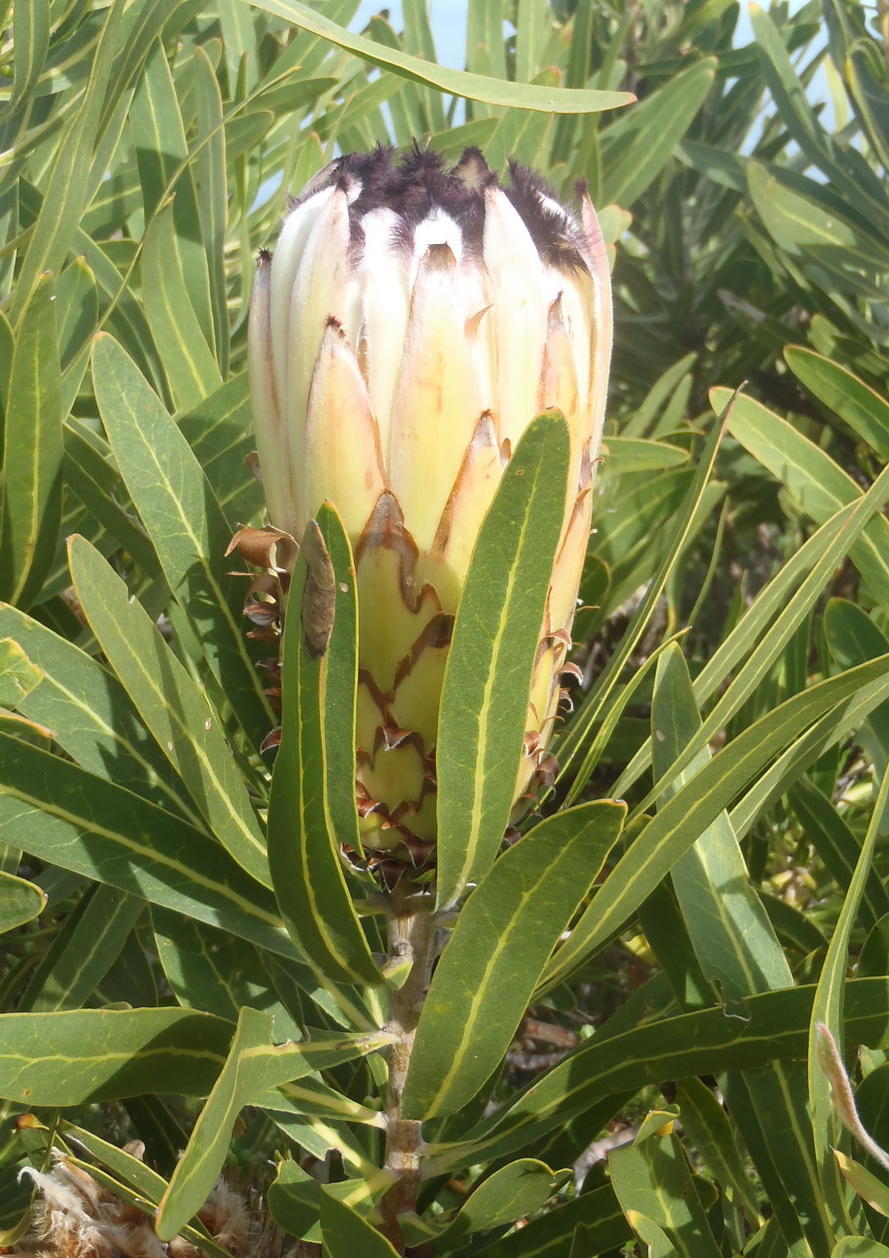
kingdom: Plantae
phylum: Tracheophyta
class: Magnoliopsida
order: Proteales
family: Proteaceae
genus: Protea
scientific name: Protea neriifolia
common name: Blue sugarbush
